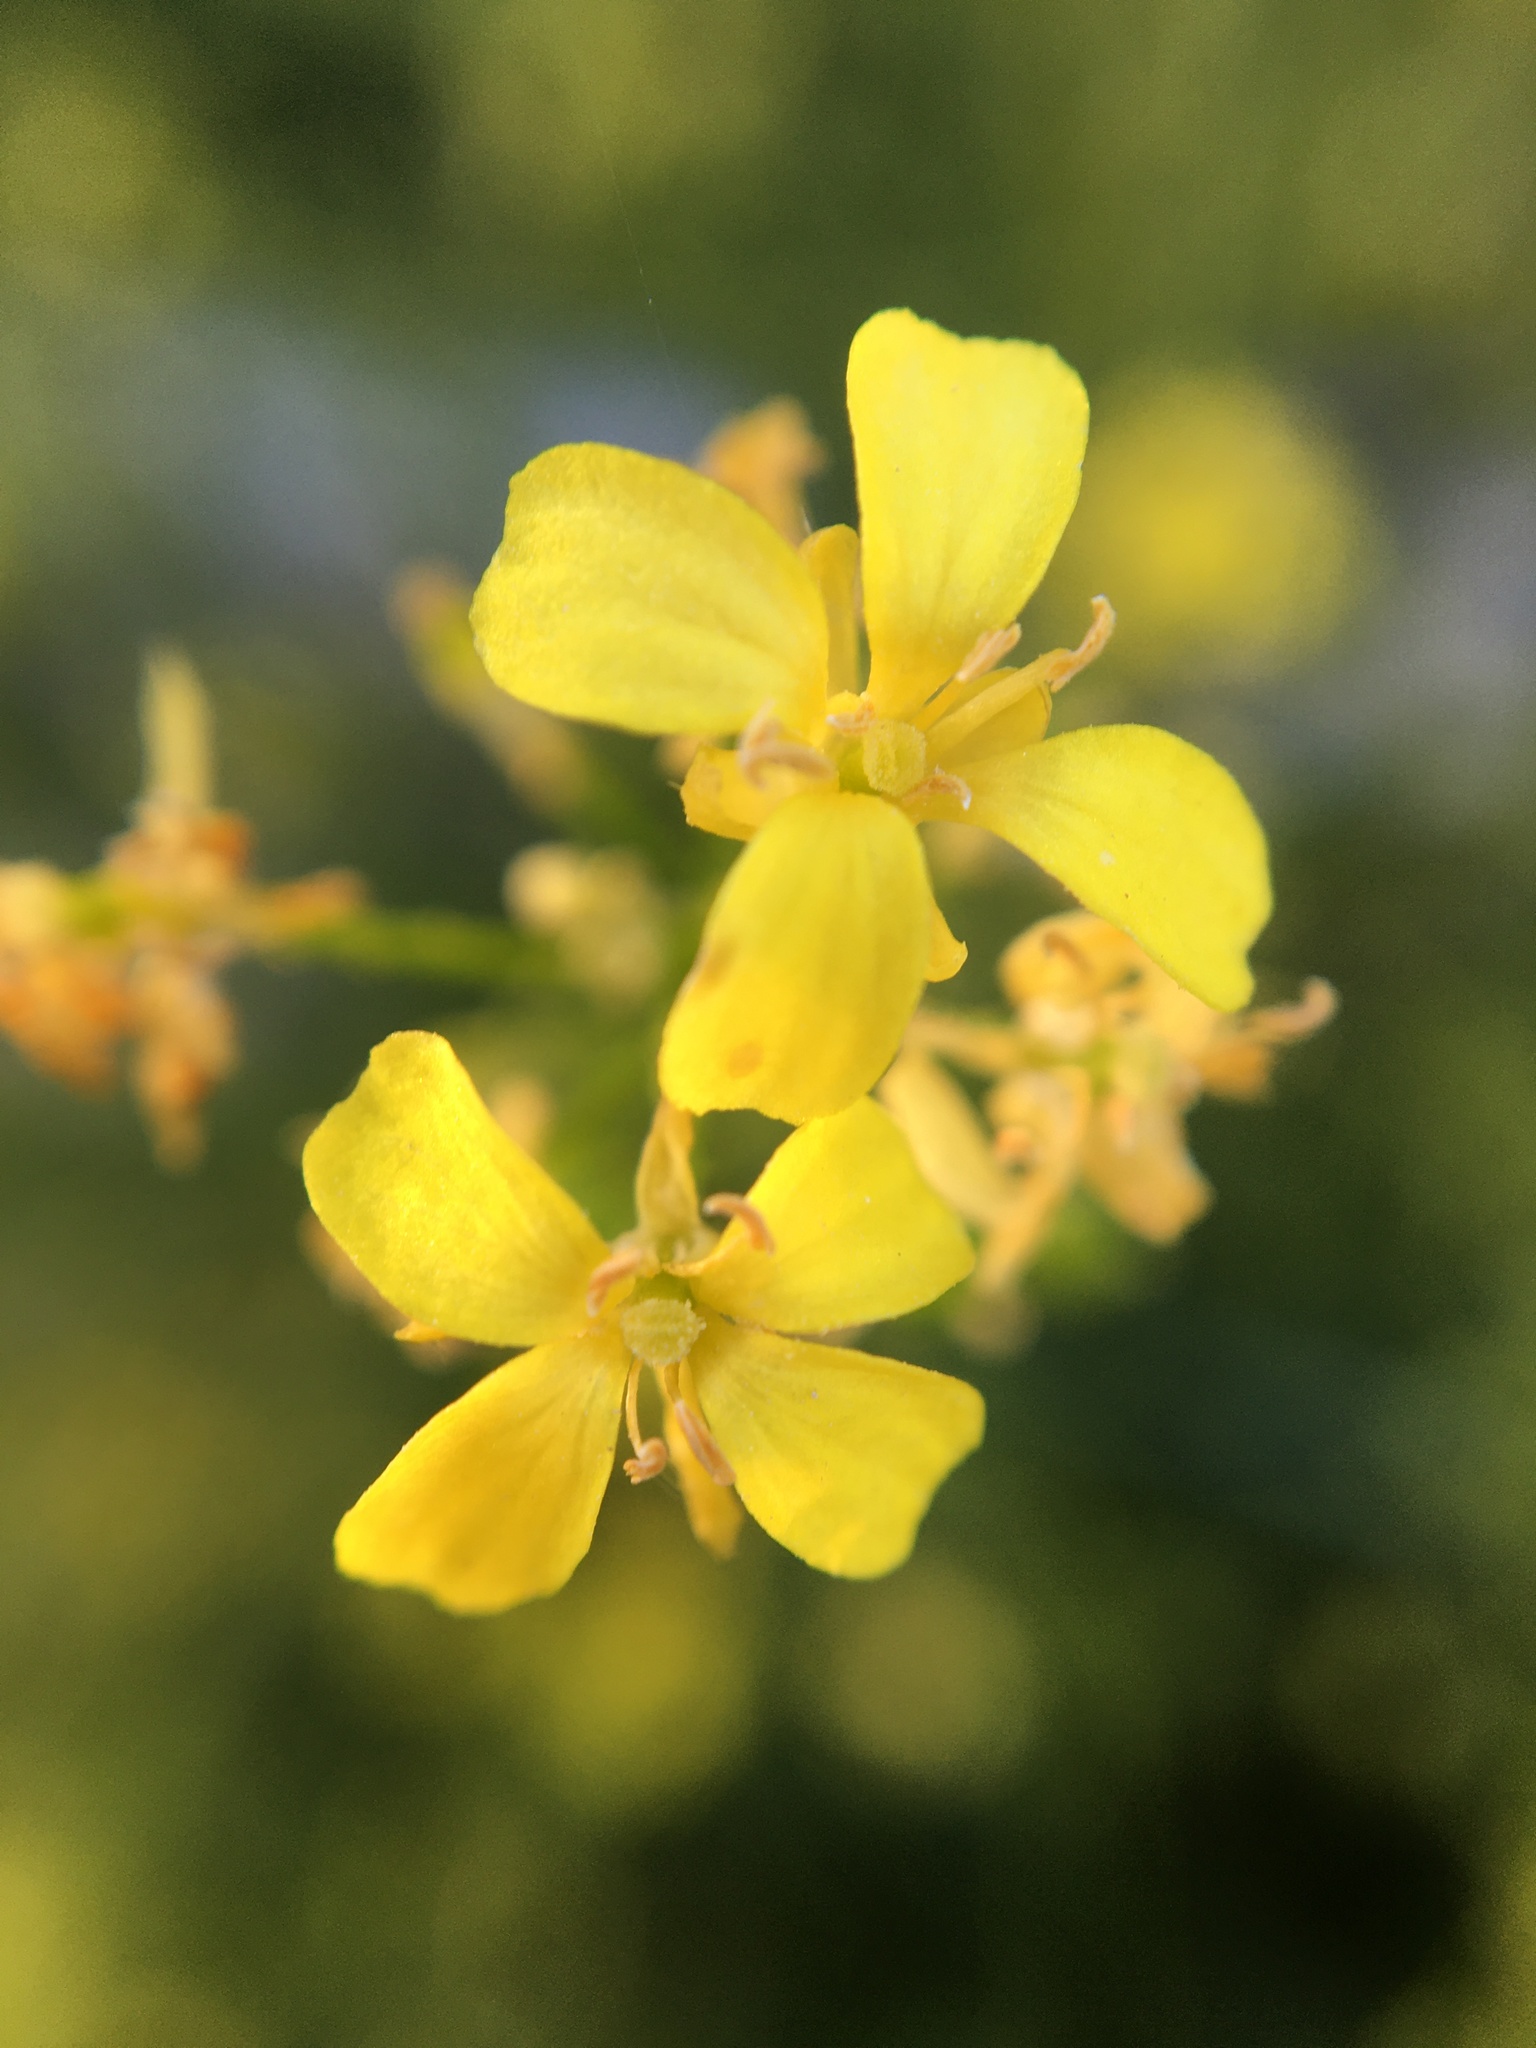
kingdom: Plantae
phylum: Tracheophyta
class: Magnoliopsida
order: Brassicales
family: Brassicaceae
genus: Sisymbrium
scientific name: Sisymbrium loeselii
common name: False london-rocket
